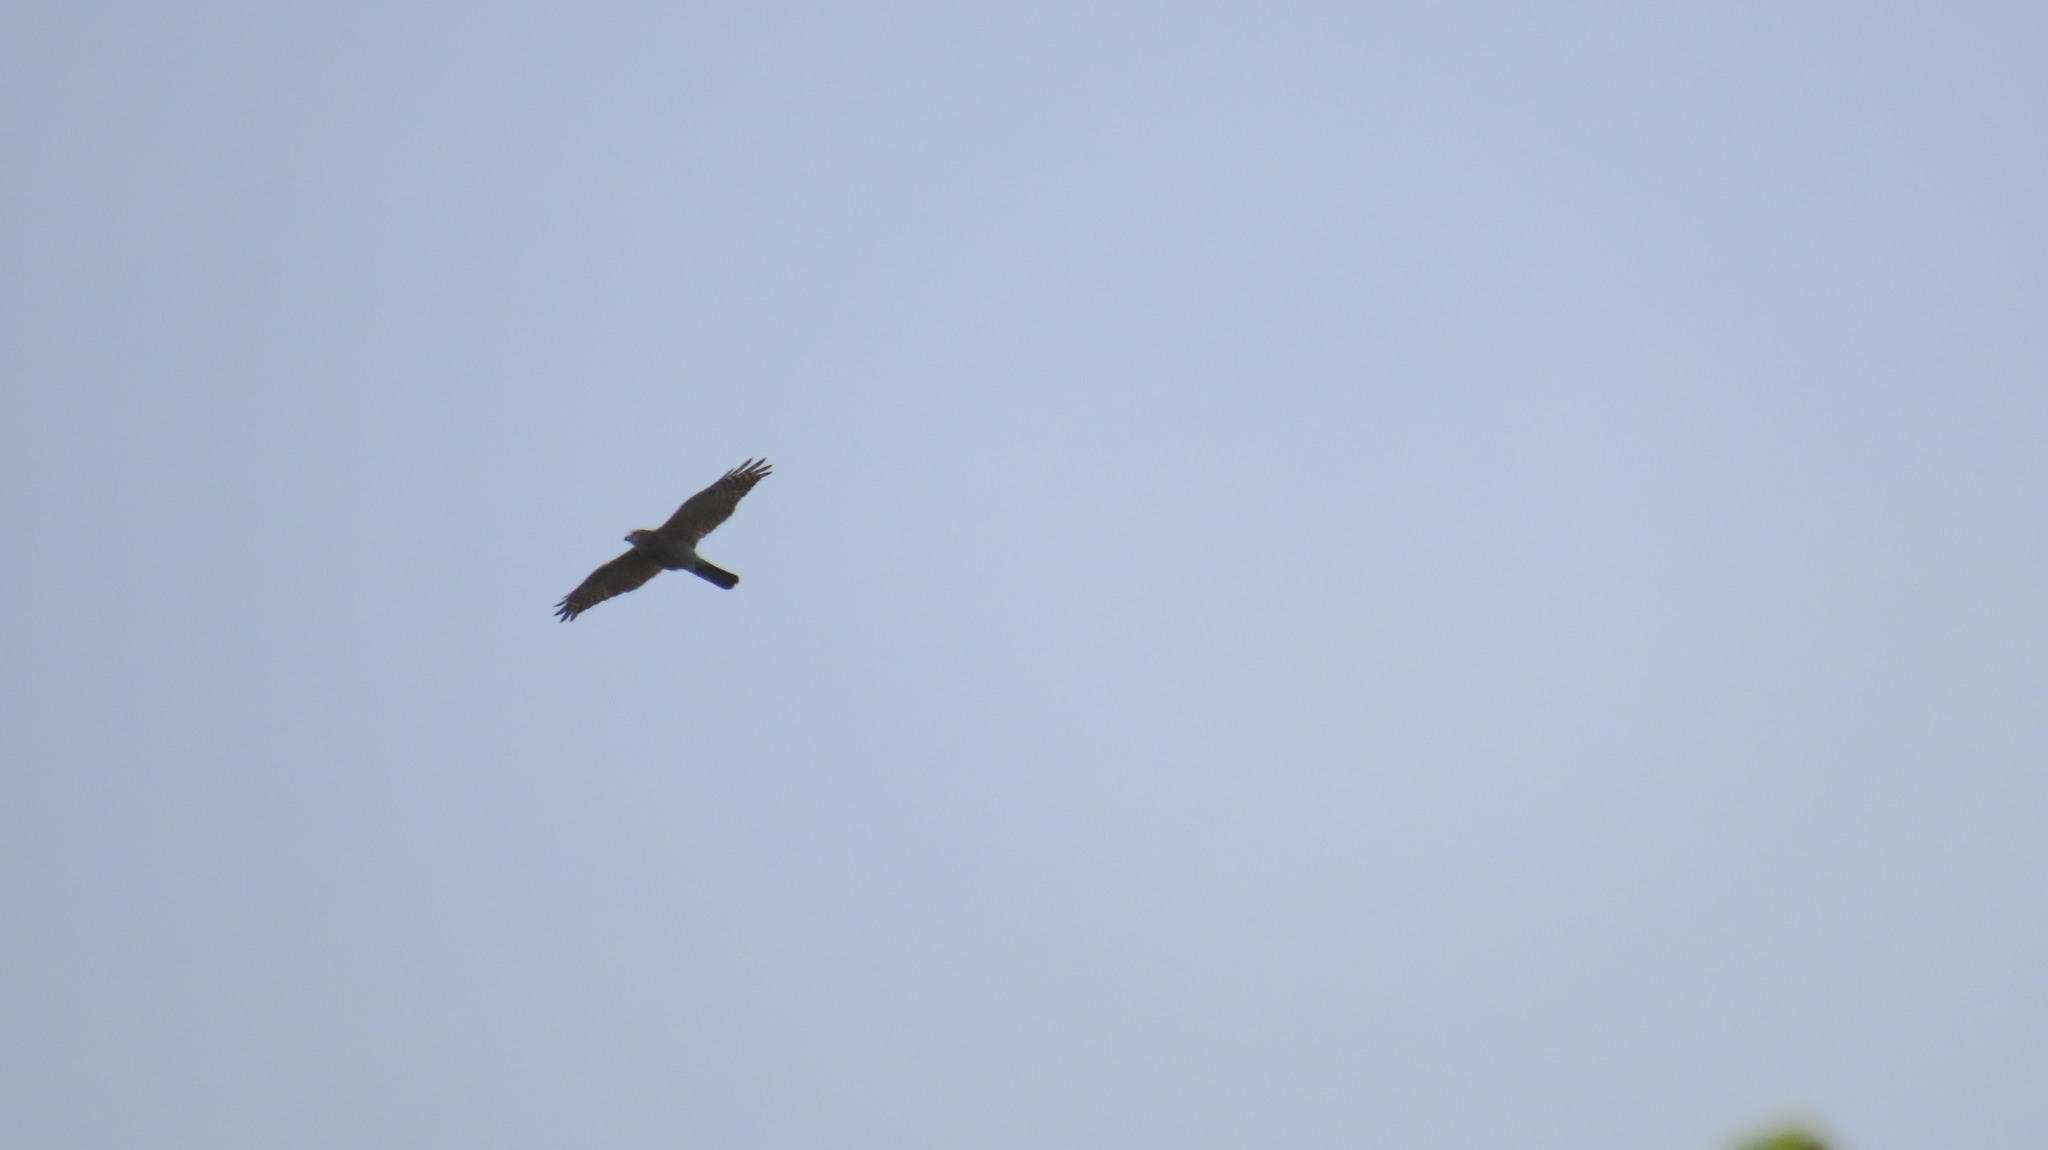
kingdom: Animalia
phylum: Chordata
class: Aves
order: Accipitriformes
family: Accipitridae
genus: Accipiter
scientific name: Accipiter badius
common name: Shikra
